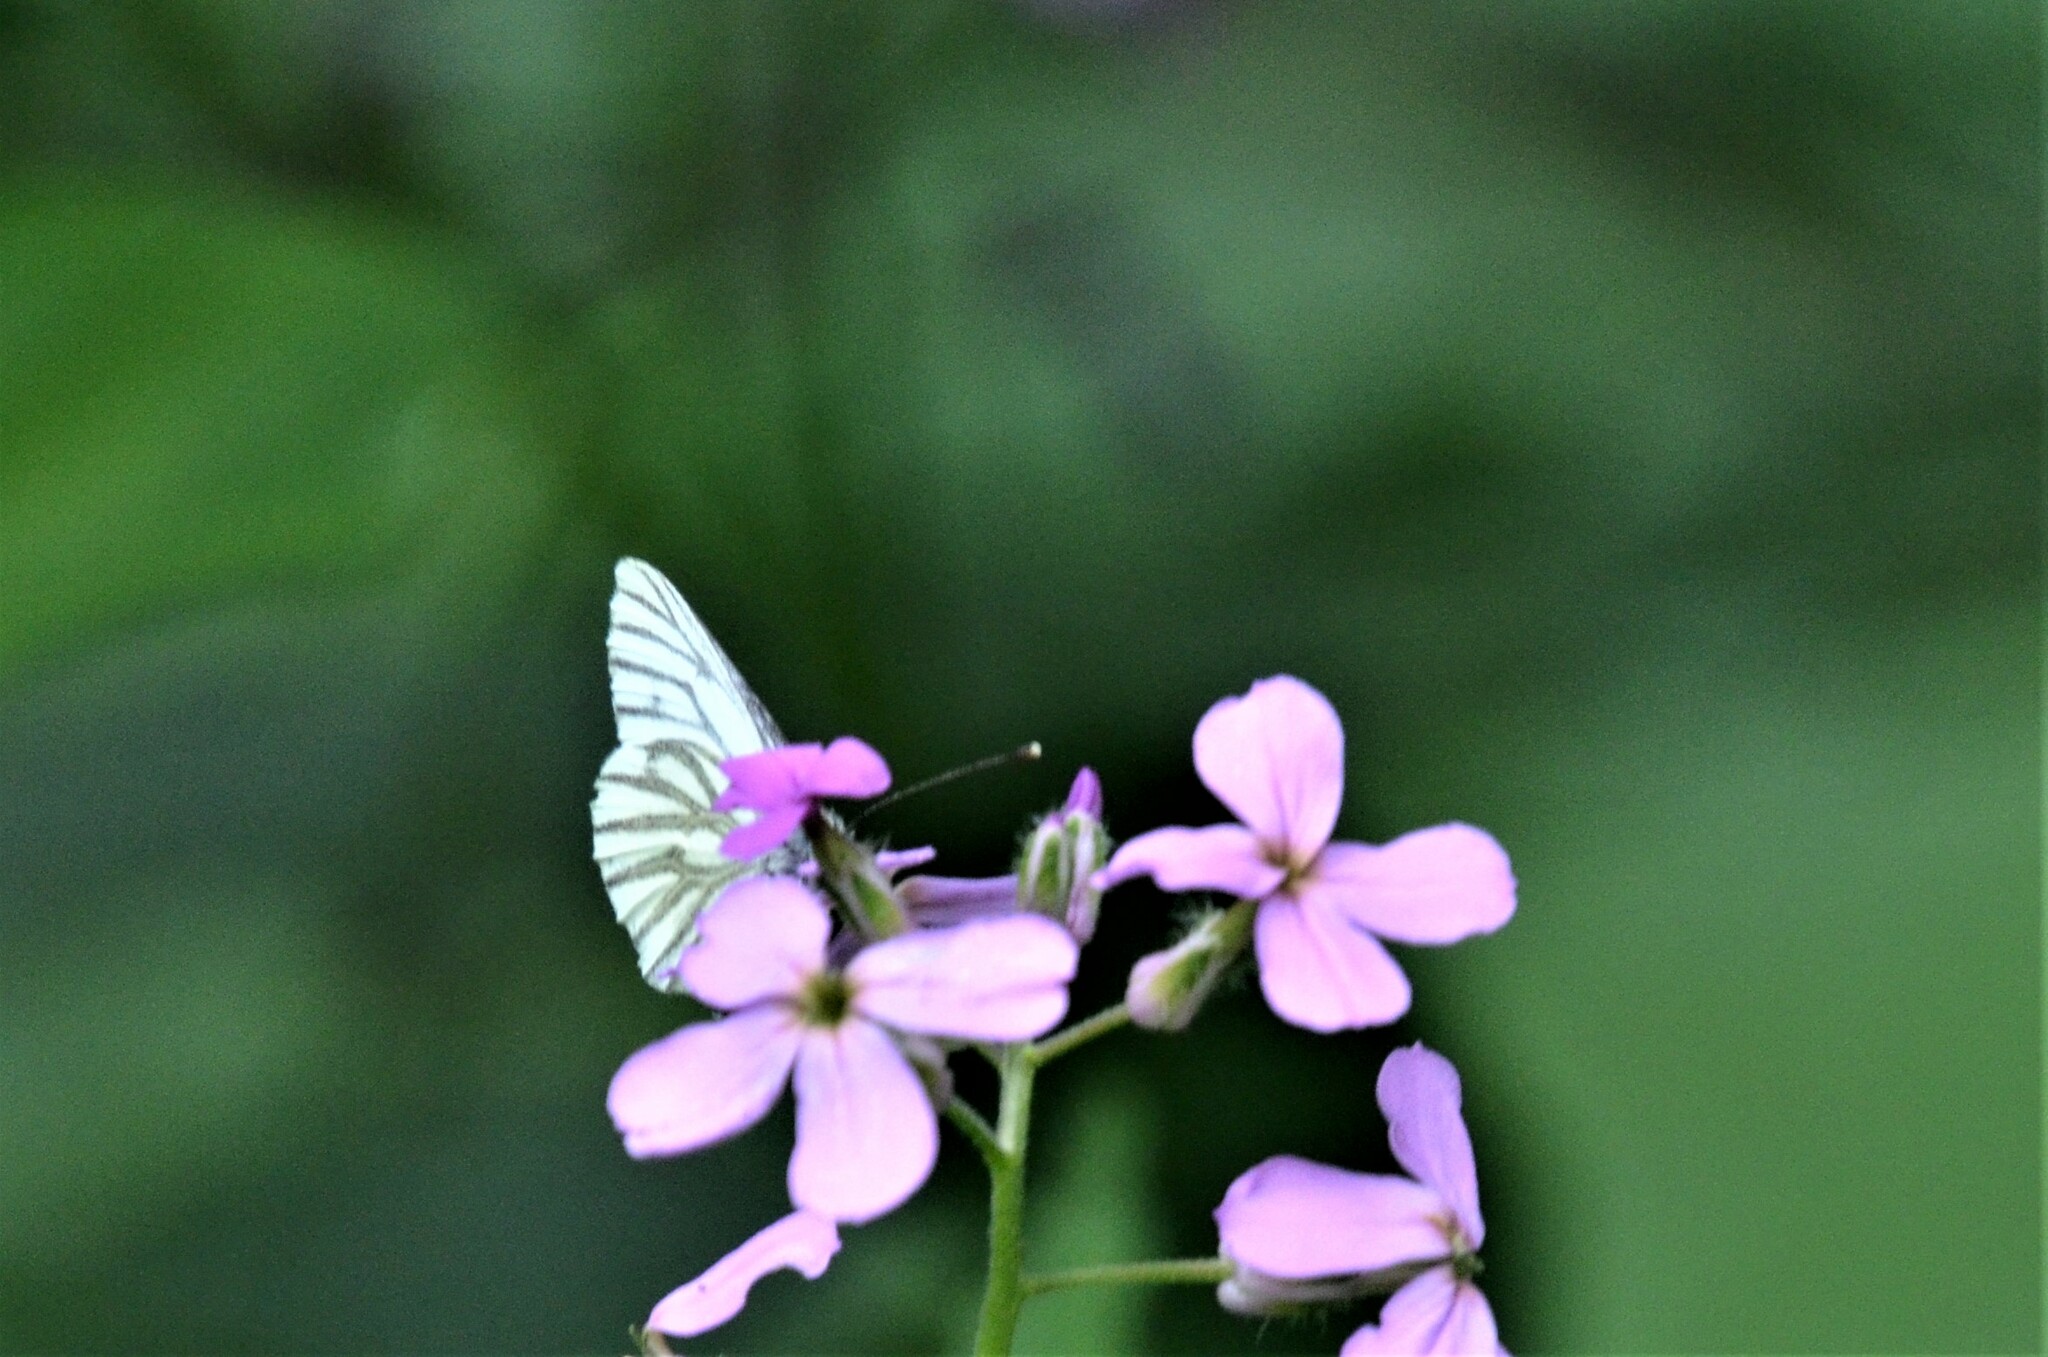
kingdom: Animalia
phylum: Arthropoda
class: Insecta
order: Lepidoptera
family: Pieridae
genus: Pieris
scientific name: Pieris napi
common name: Green-veined white
